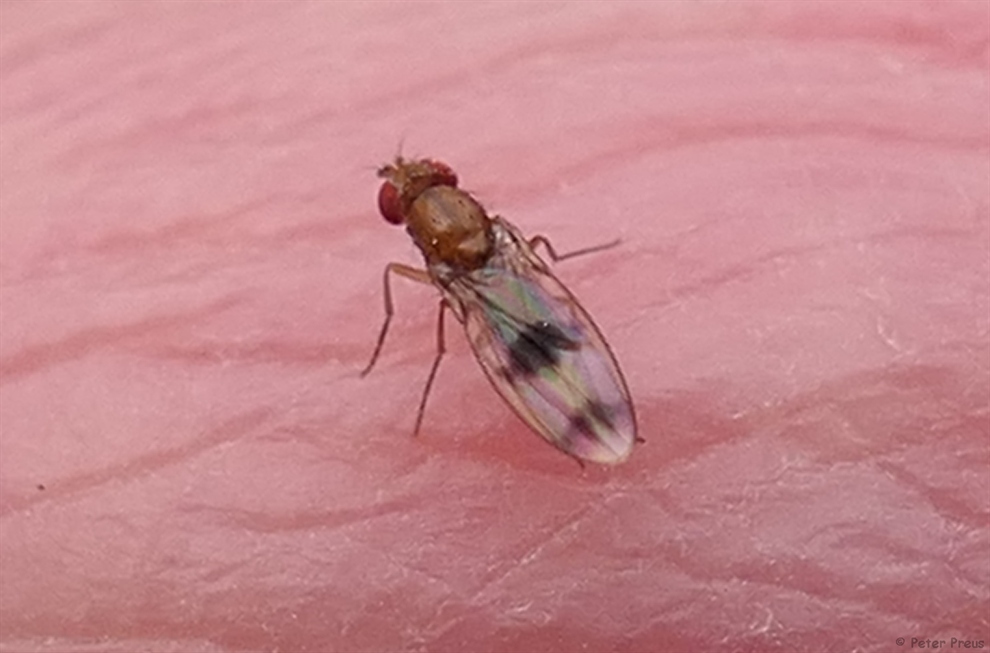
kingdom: Animalia
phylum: Arthropoda
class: Insecta
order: Diptera
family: Drosophilidae
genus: Chymomyza
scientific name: Chymomyza amoena
